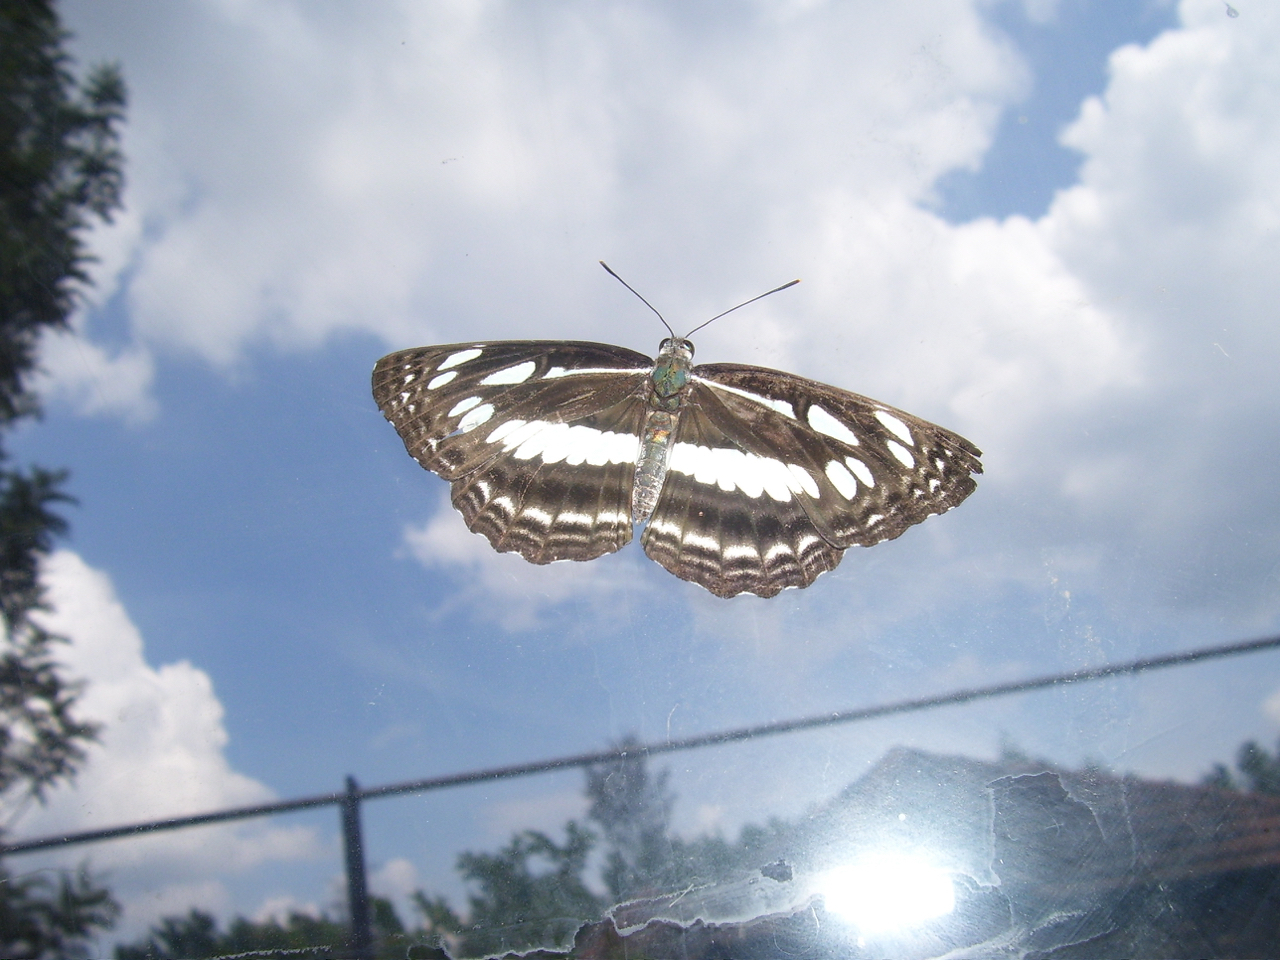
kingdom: Animalia
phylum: Arthropoda
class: Insecta
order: Lepidoptera
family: Nymphalidae
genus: Neptis
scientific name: Neptis jumbah
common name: Chestnut-streaked sailer
